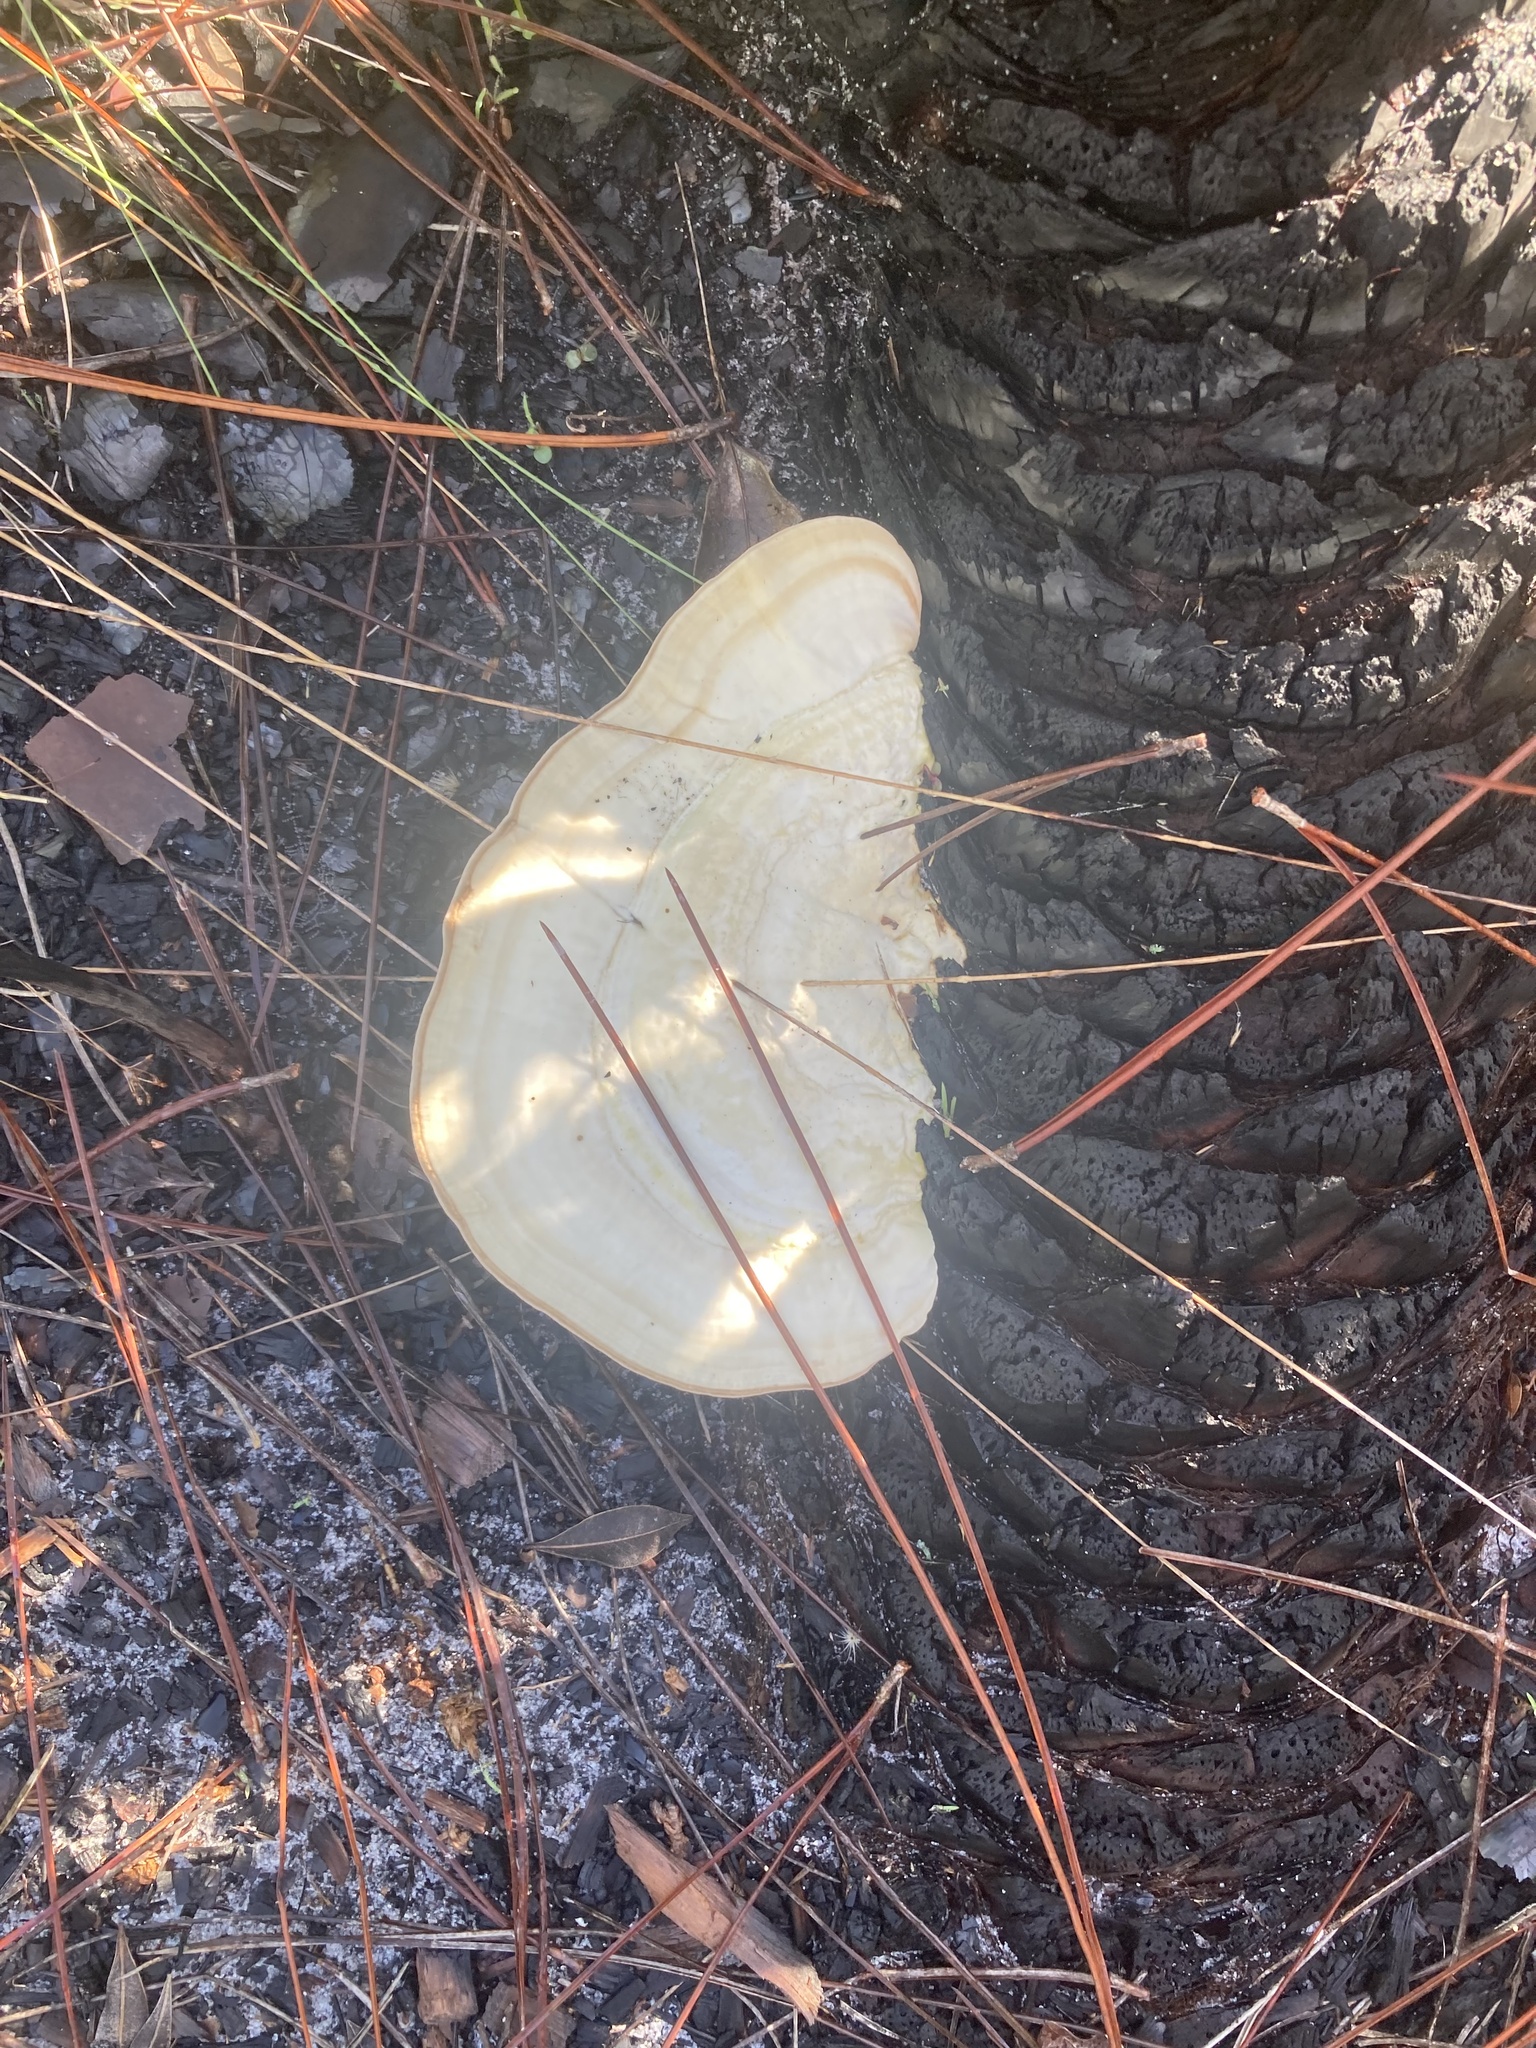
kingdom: Plantae
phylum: Tracheophyta
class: Liliopsida
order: Arecales
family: Arecaceae
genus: Serenoa
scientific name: Serenoa repens
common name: Saw-palmetto
